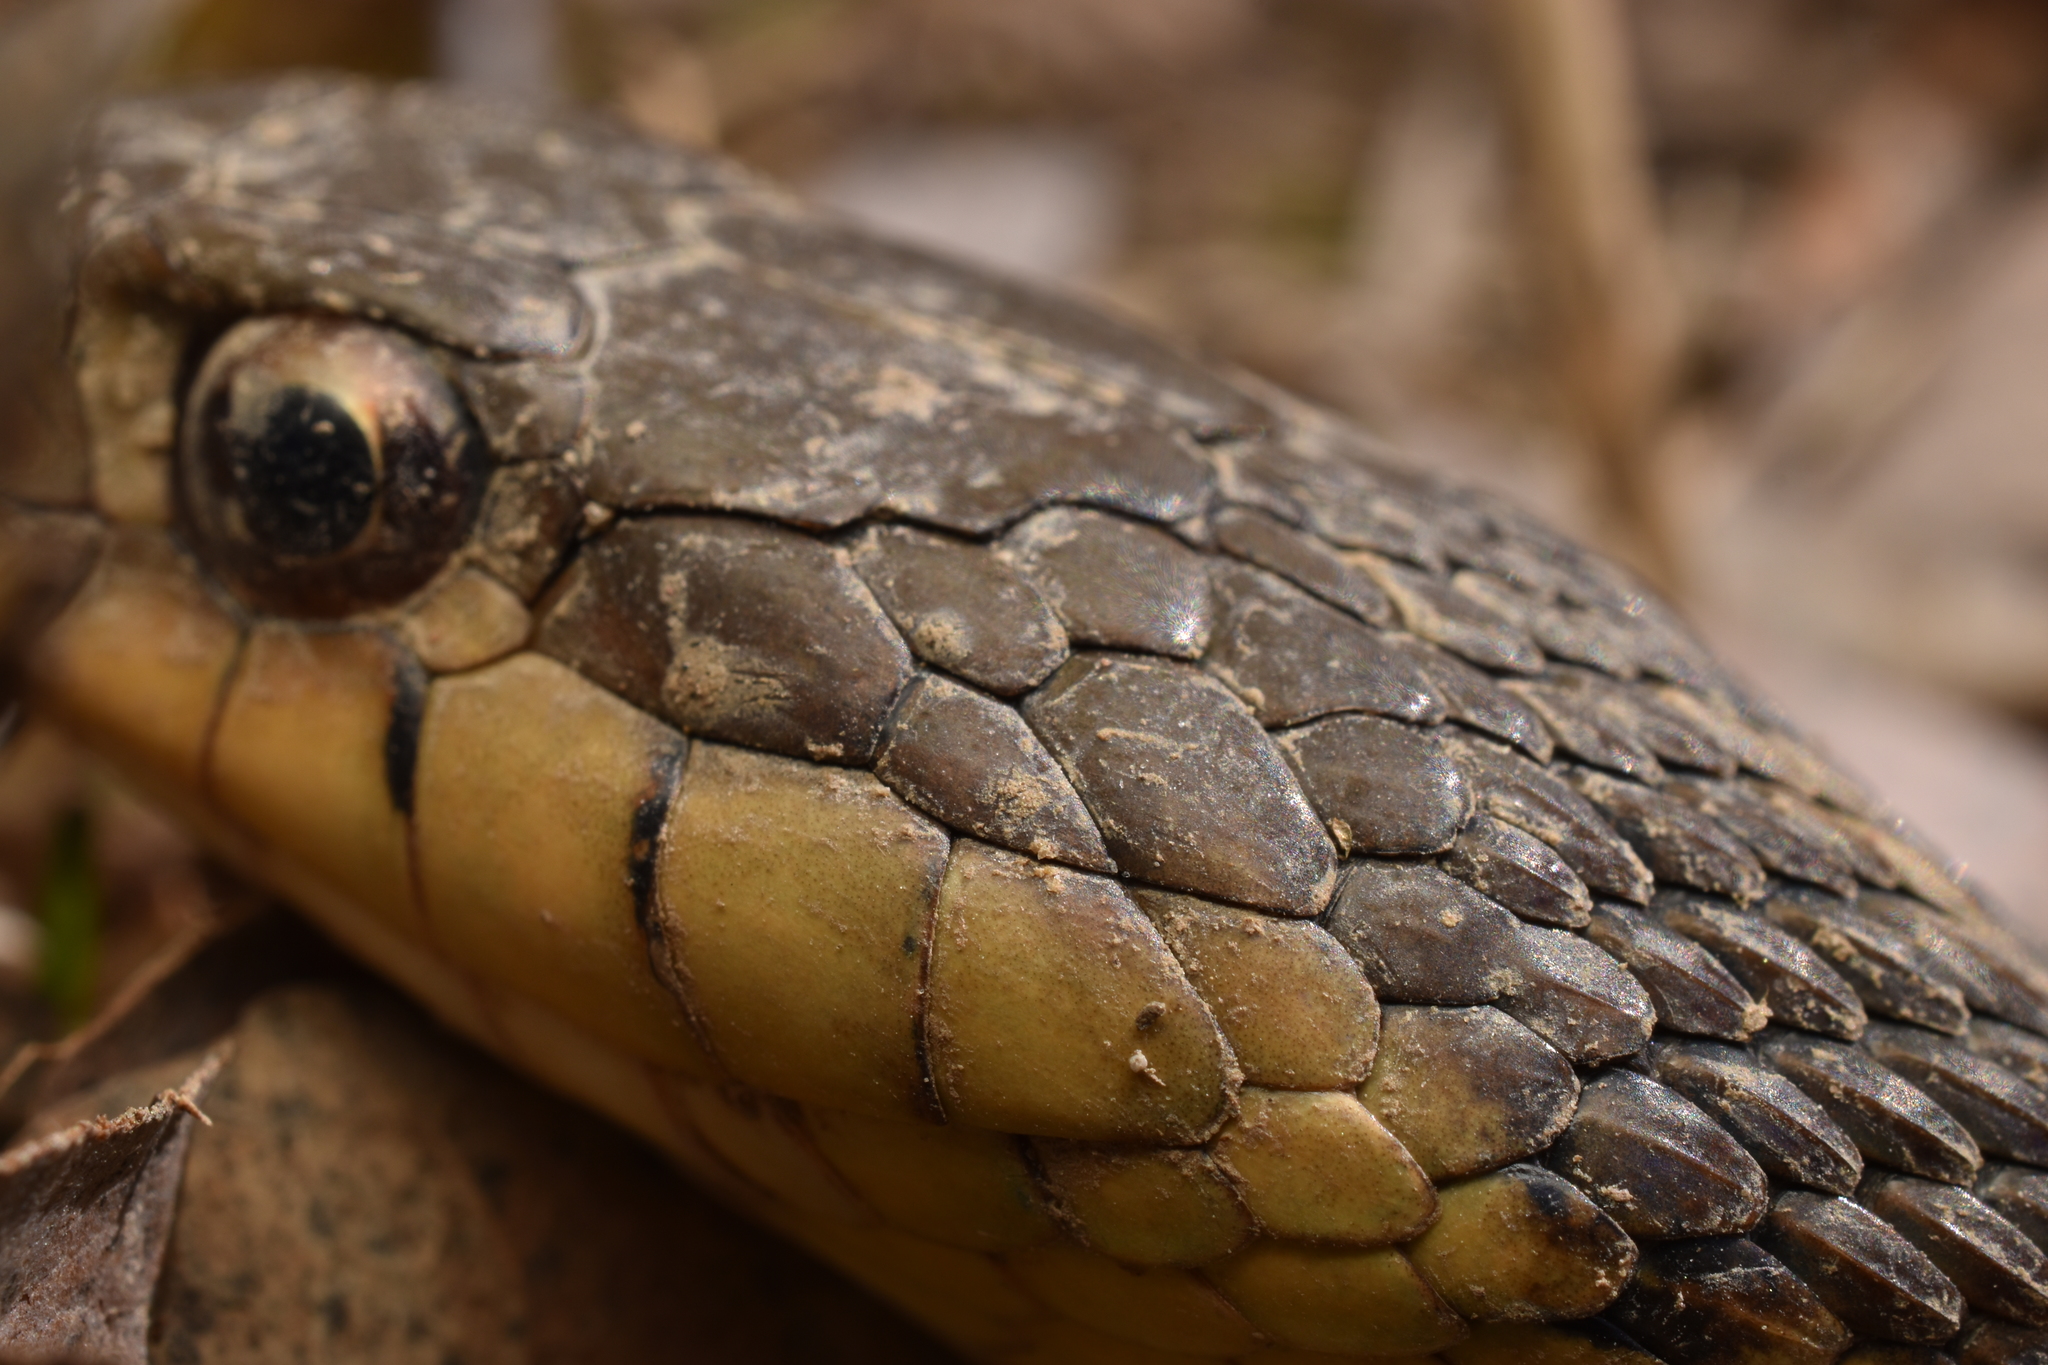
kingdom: Animalia
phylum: Chordata
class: Squamata
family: Colubridae
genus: Thamnophis
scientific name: Thamnophis sirtalis
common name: Common garter snake
